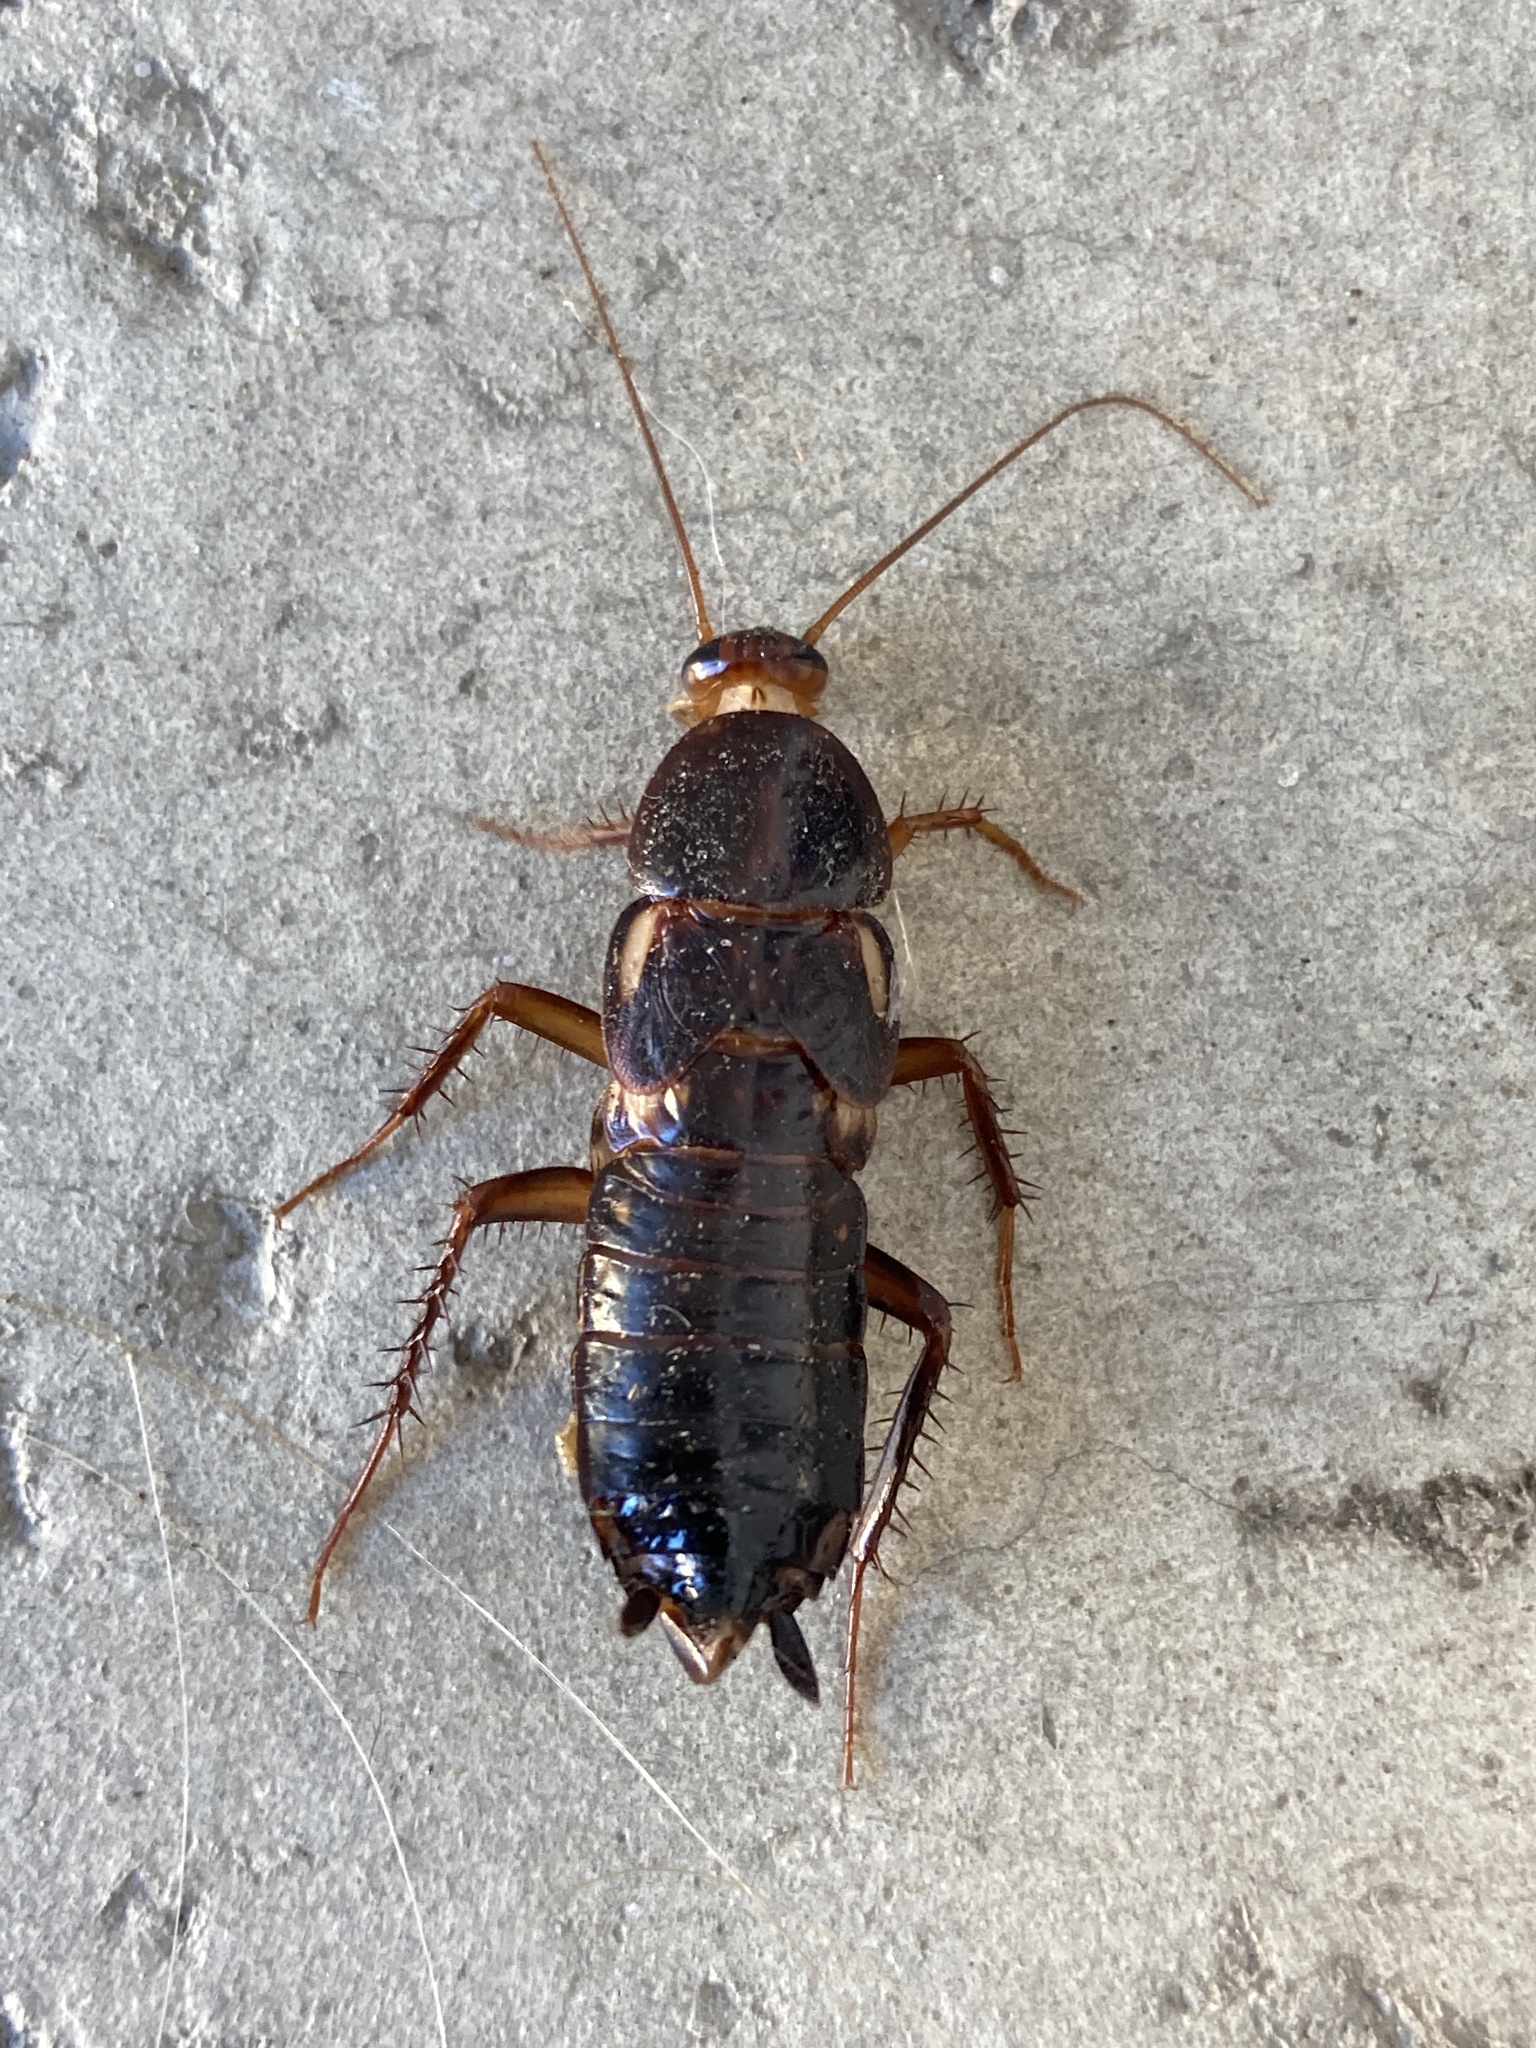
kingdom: Animalia
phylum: Arthropoda
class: Insecta
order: Blattodea
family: Blattidae
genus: Periplaneta
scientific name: Periplaneta lateralis
